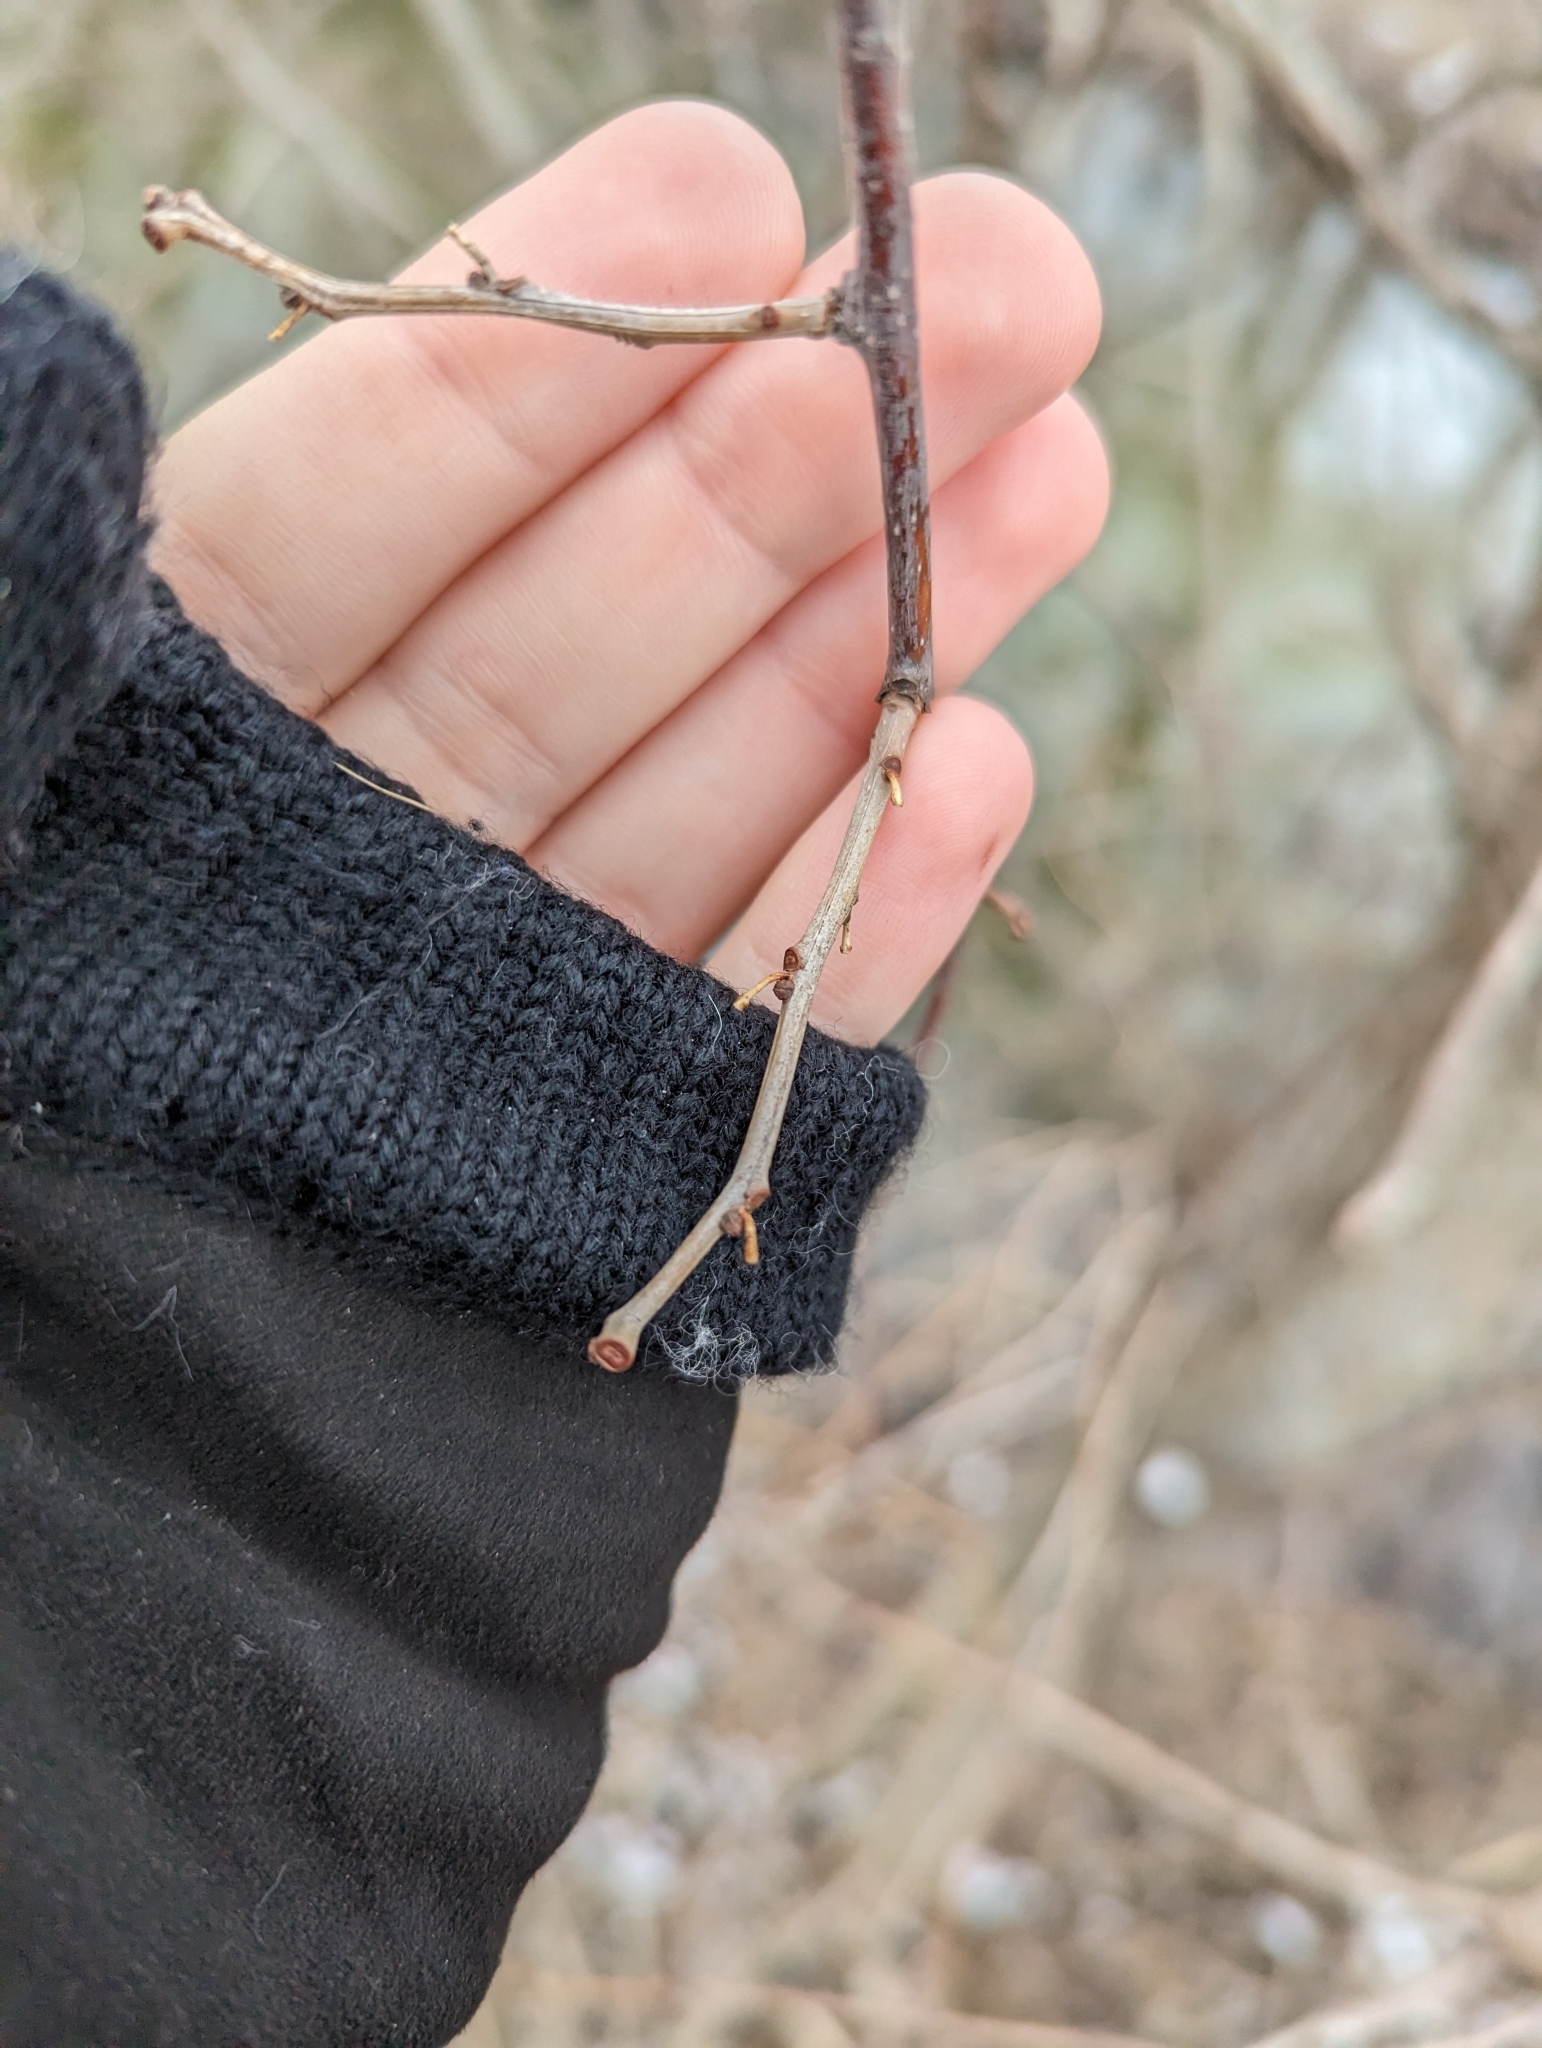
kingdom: Plantae
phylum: Tracheophyta
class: Magnoliopsida
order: Celastrales
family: Celastraceae
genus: Celastrus
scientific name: Celastrus orbiculatus
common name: Oriental bittersweet
